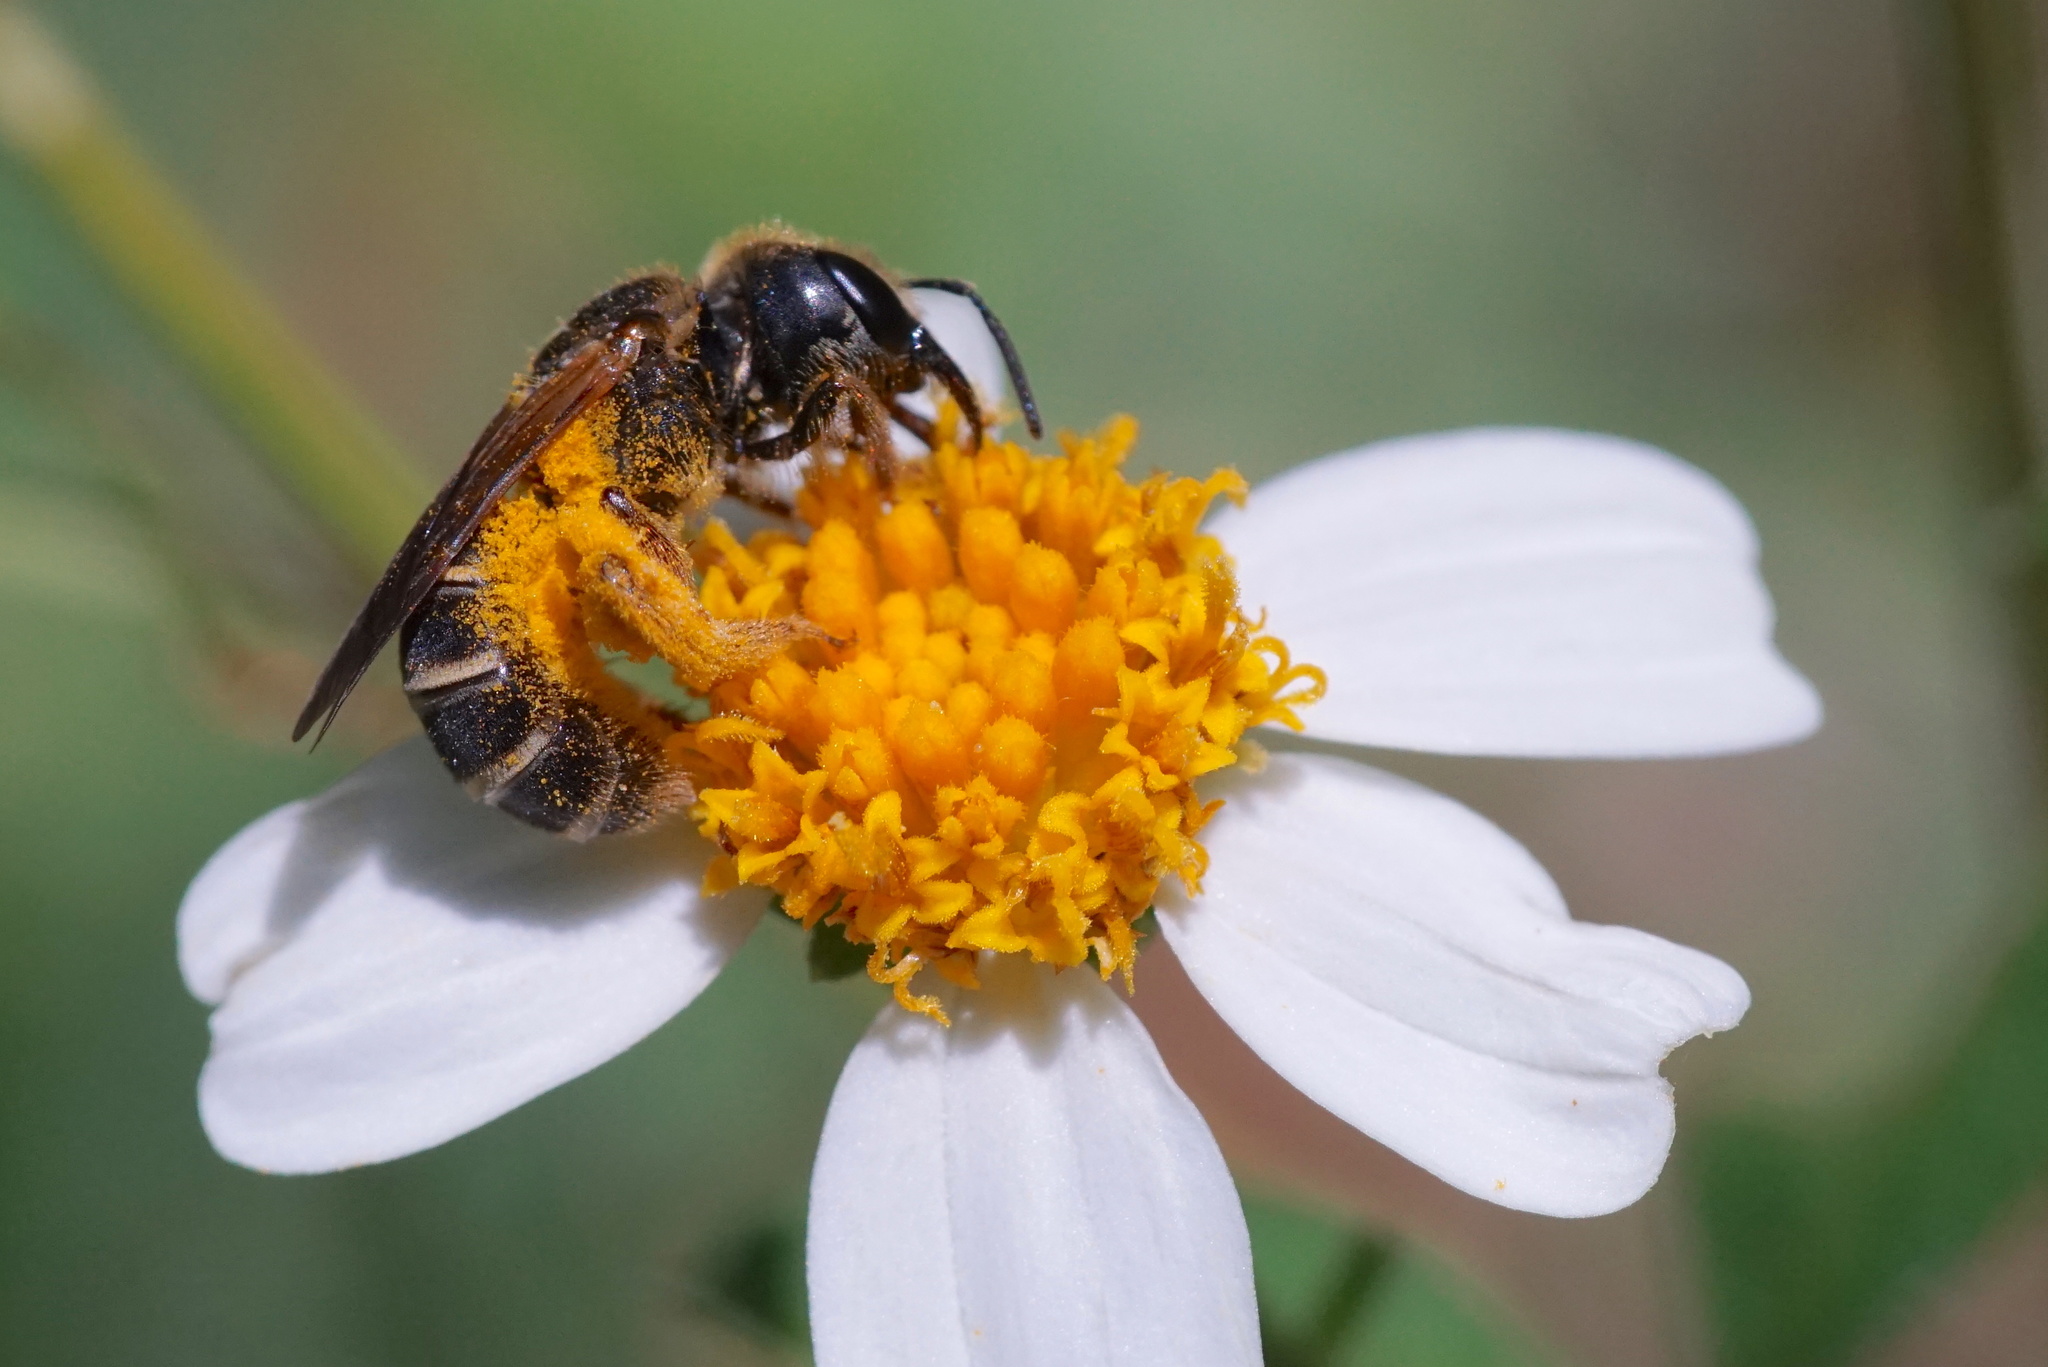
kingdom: Animalia
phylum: Arthropoda
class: Insecta
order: Hymenoptera
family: Halictidae
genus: Halictus
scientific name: Halictus poeyi
